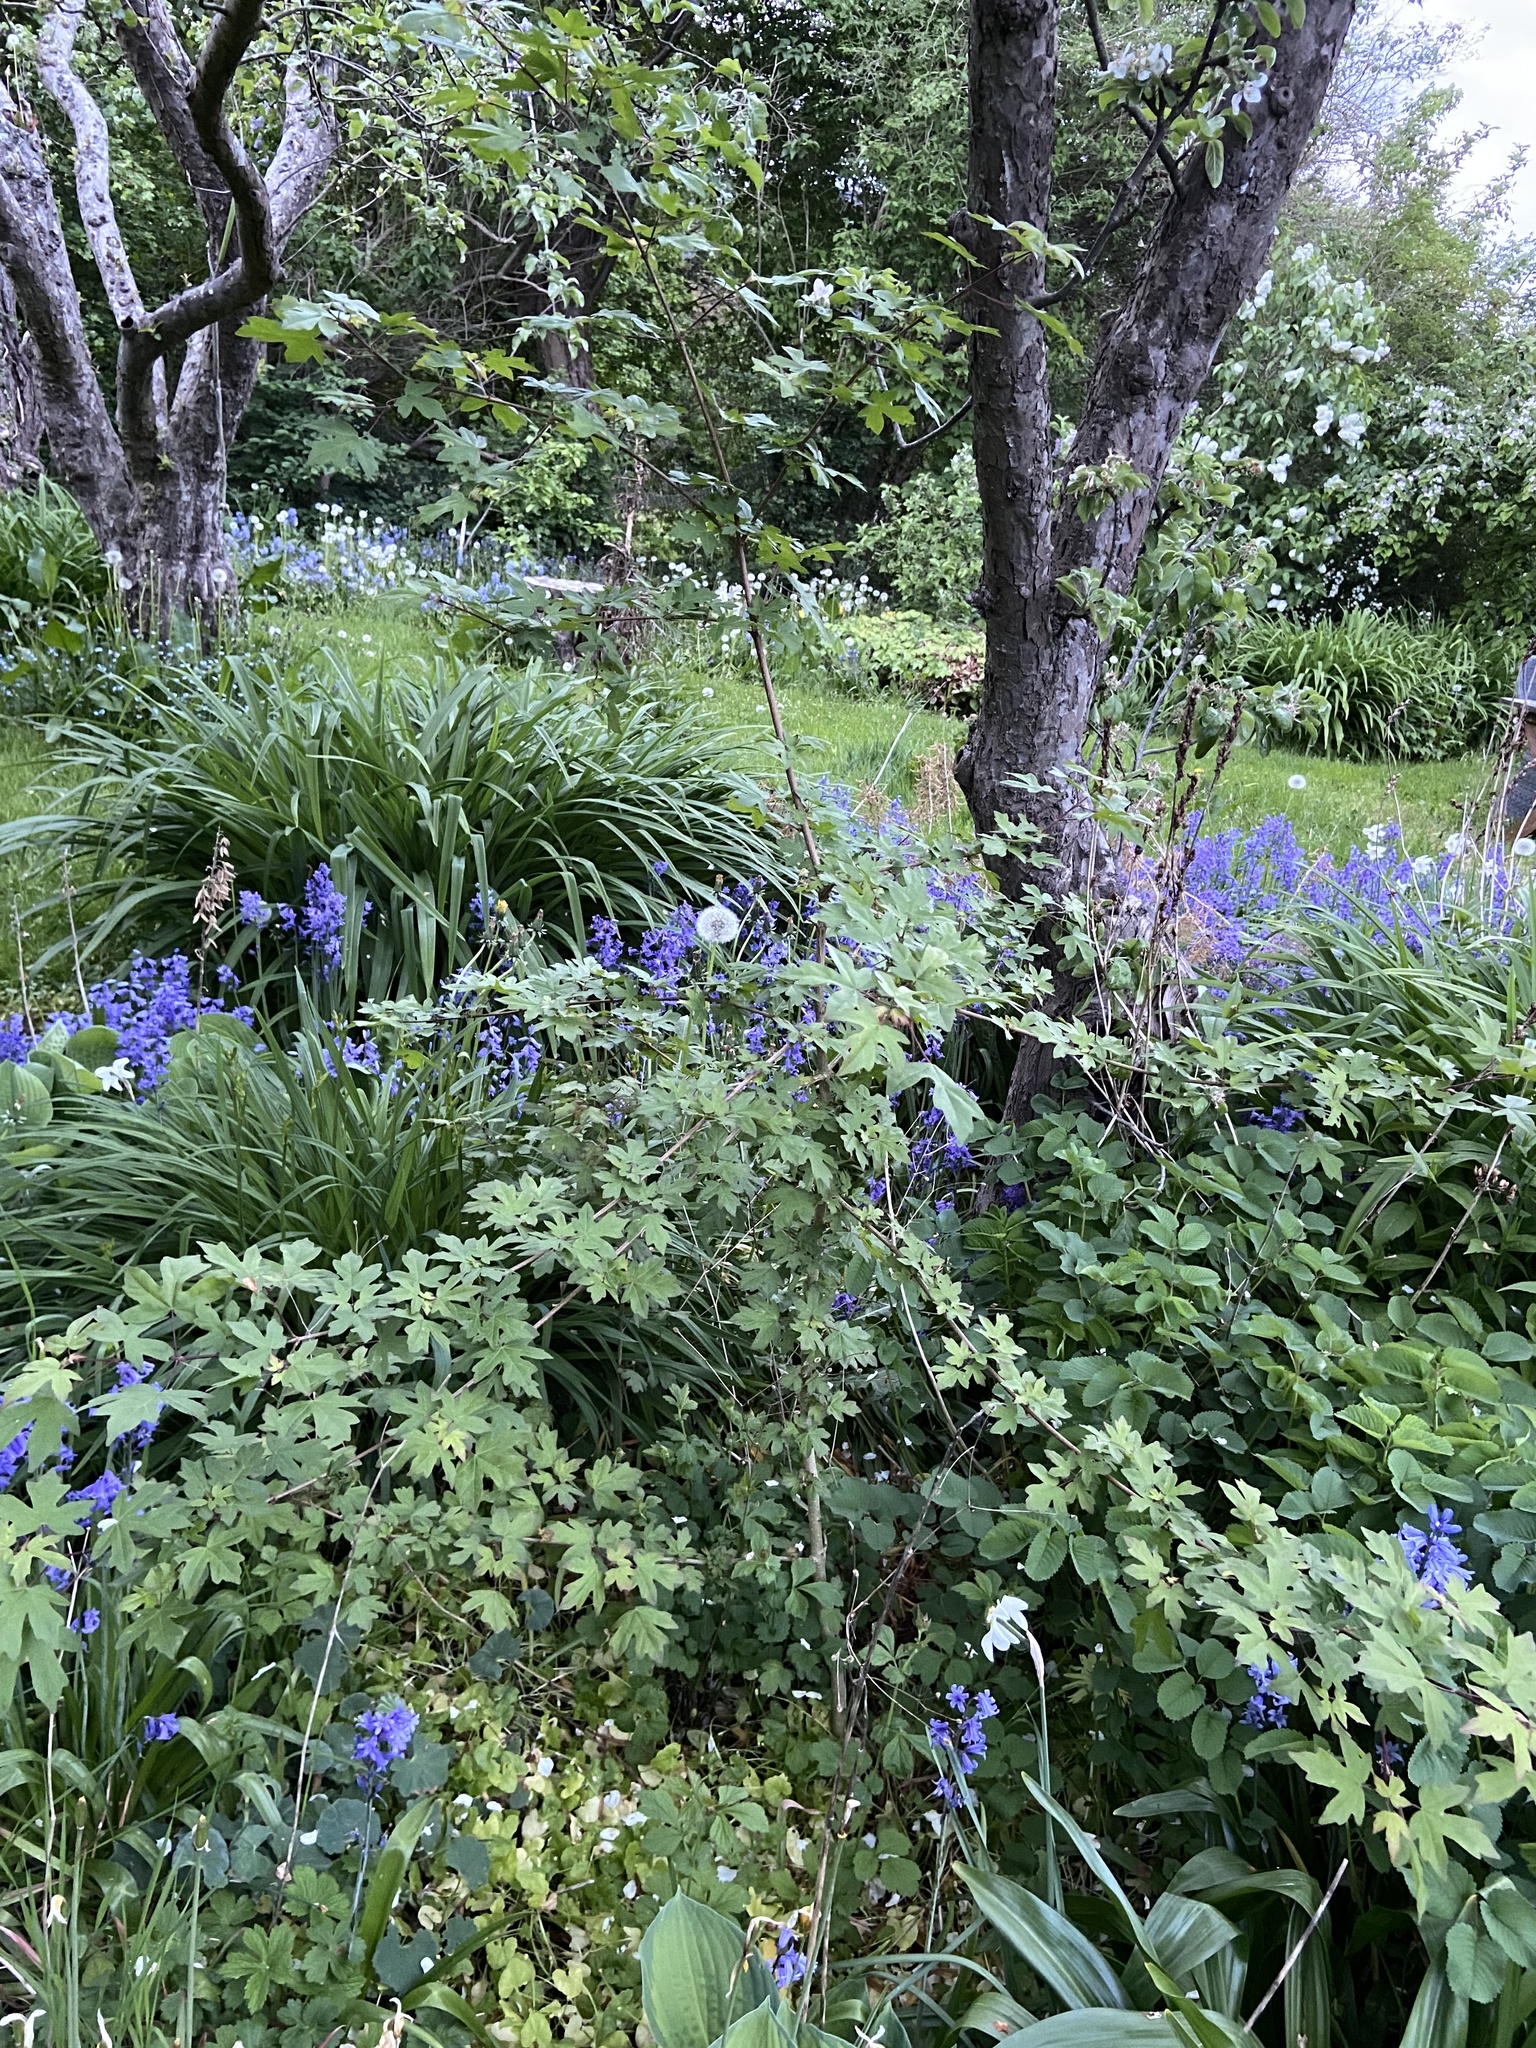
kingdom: Plantae
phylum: Tracheophyta
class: Magnoliopsida
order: Sapindales
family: Sapindaceae
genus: Acer
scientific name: Acer campestre
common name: Field maple
